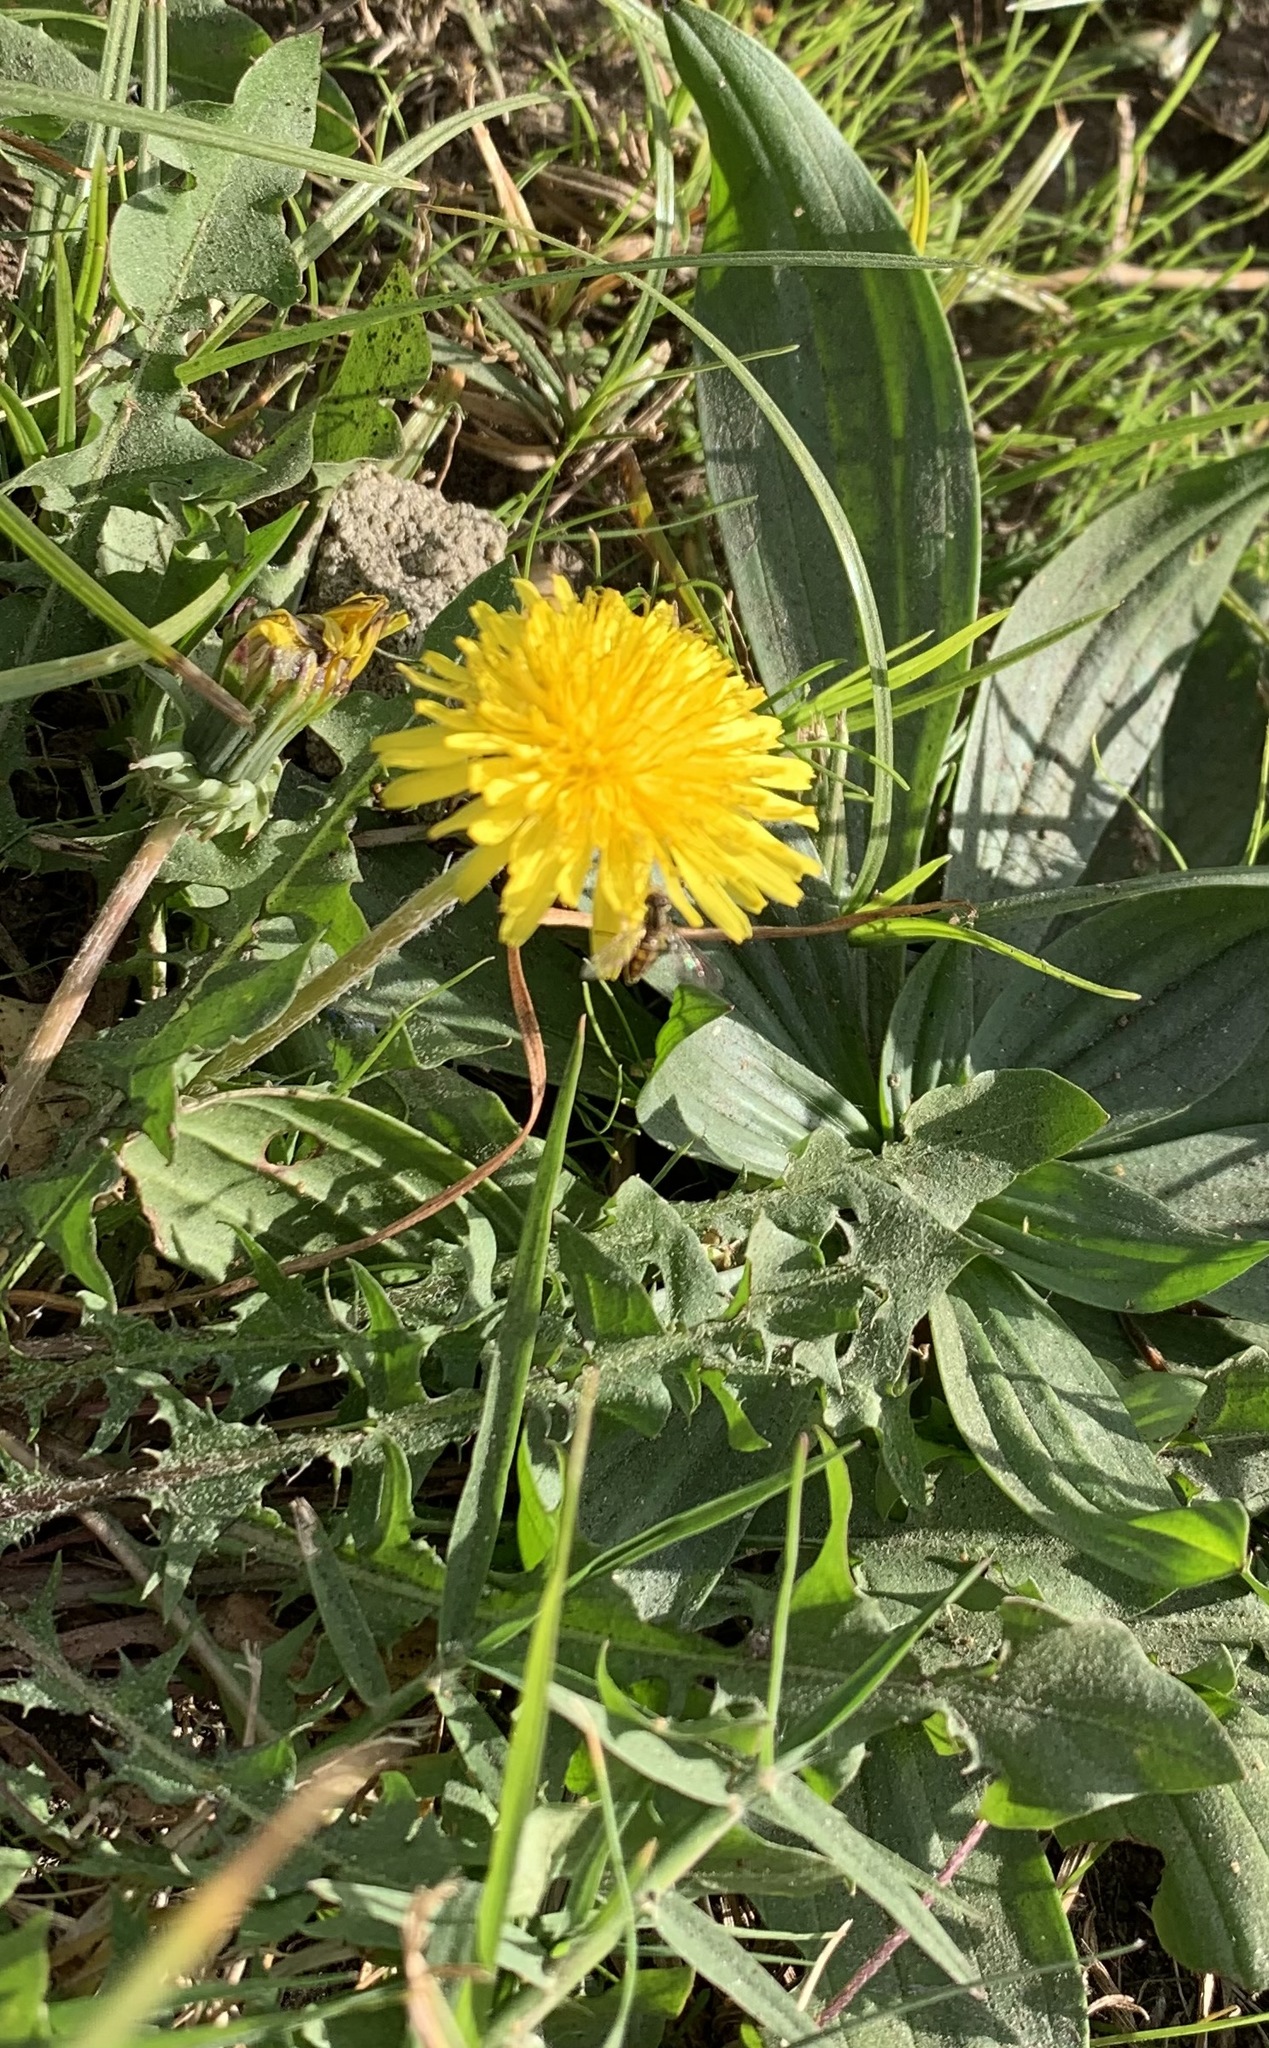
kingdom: Animalia
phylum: Arthropoda
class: Insecta
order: Diptera
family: Syrphidae
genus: Toxomerus
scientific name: Toxomerus marginatus
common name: Syrphid fly
